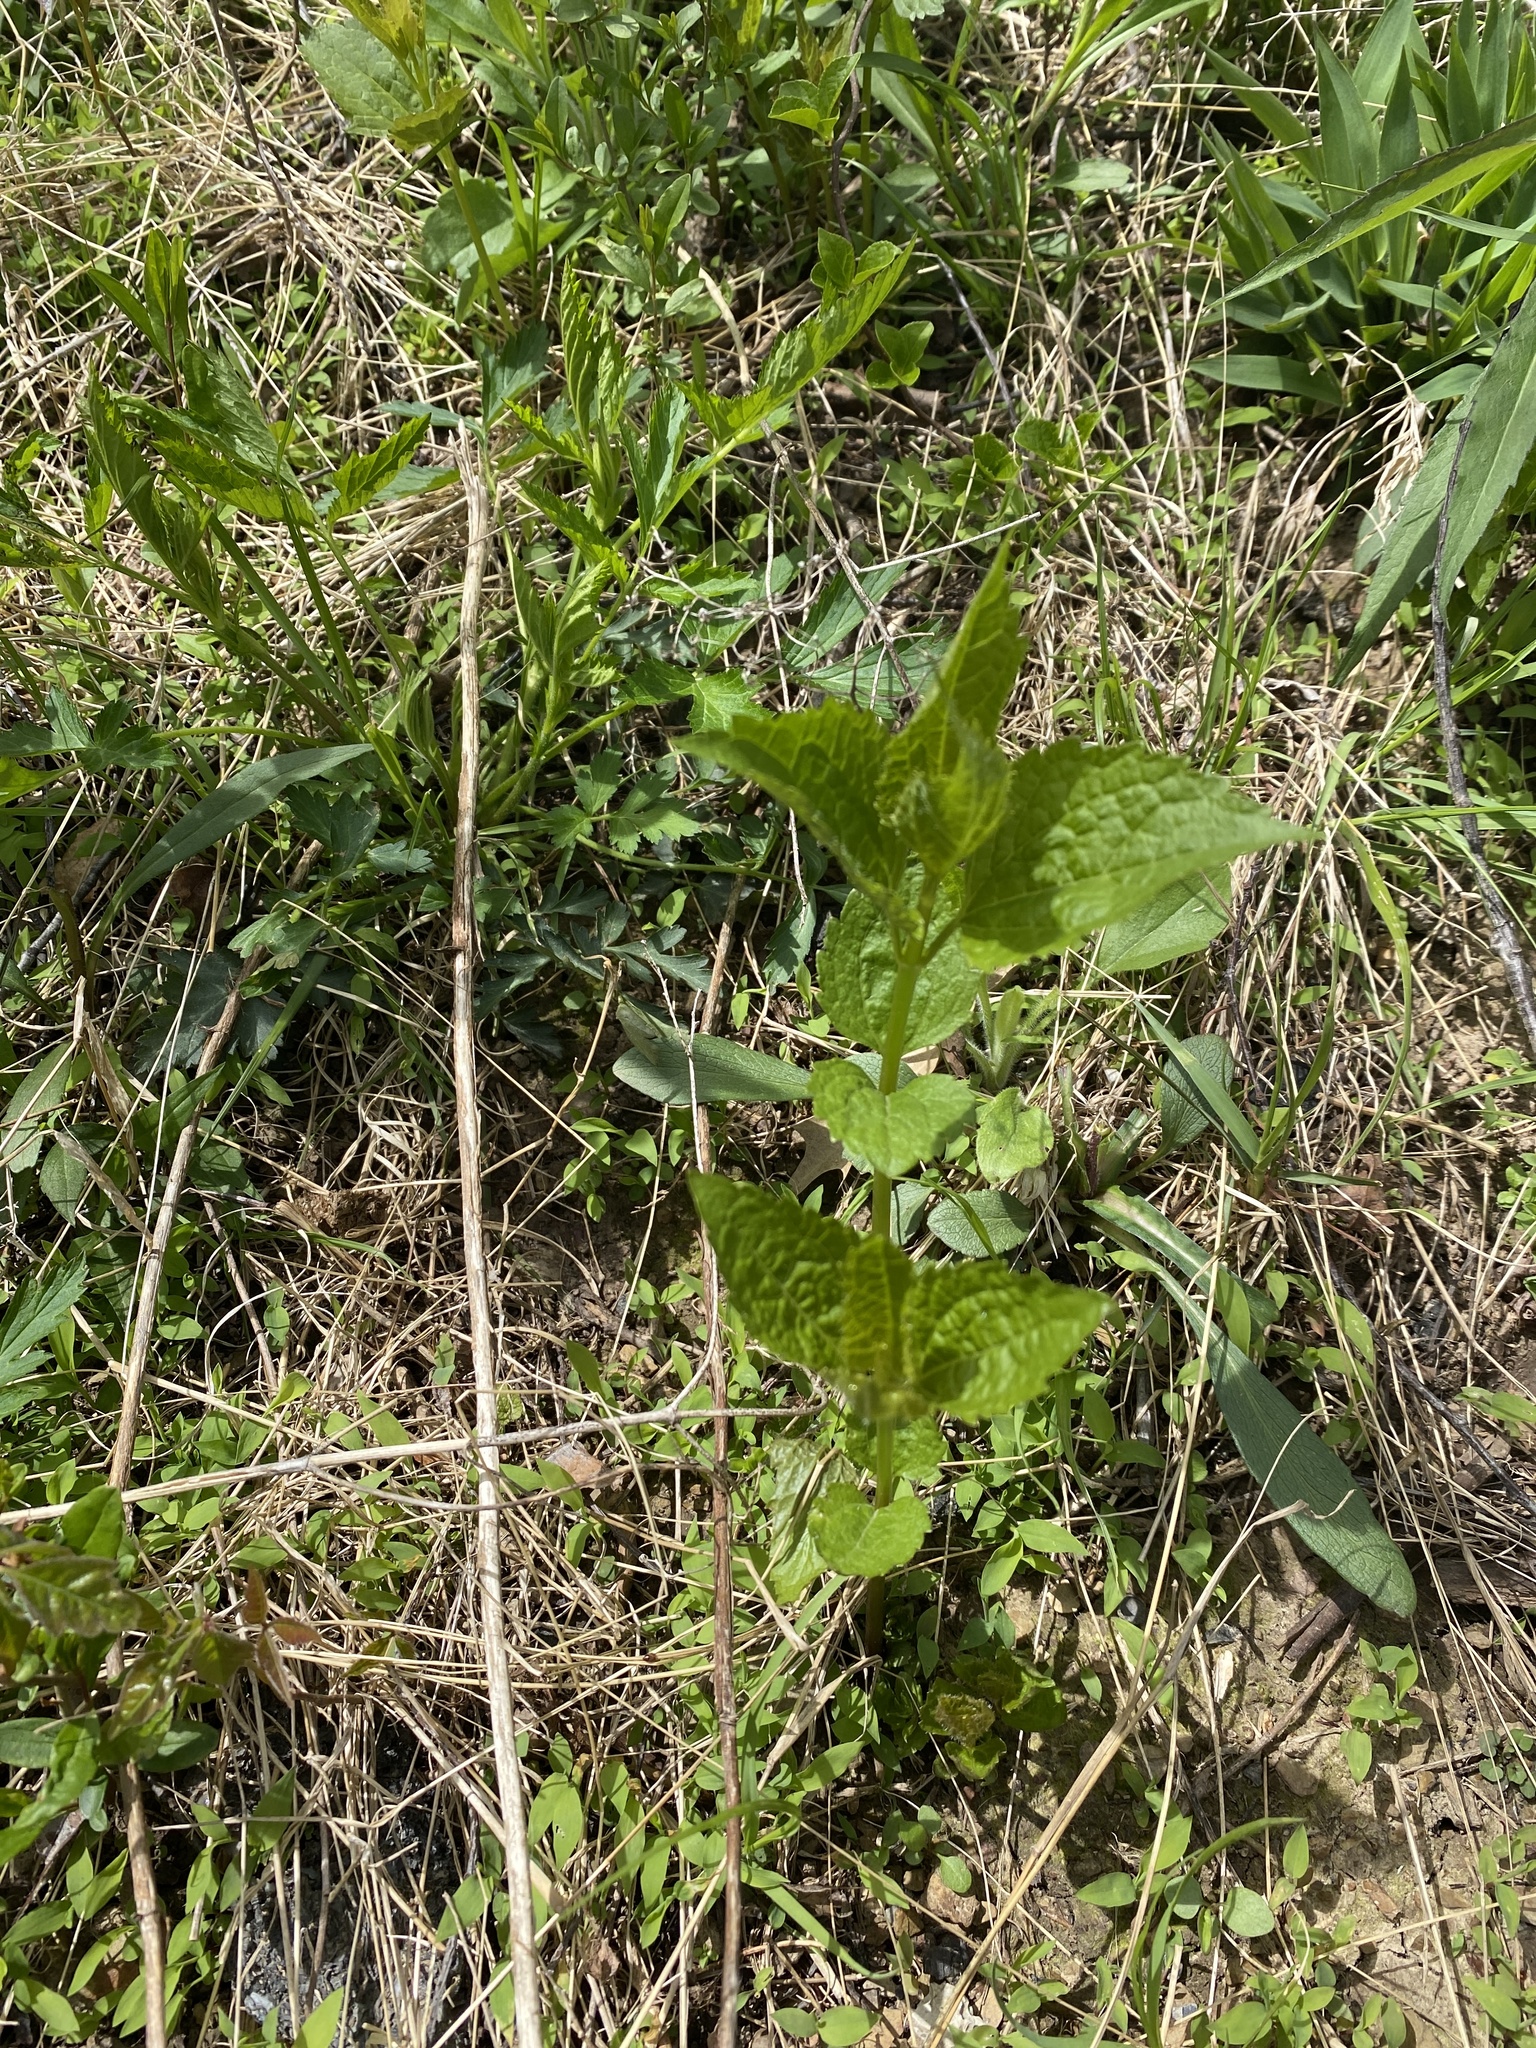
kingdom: Plantae
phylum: Tracheophyta
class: Magnoliopsida
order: Asterales
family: Asteraceae
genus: Ageratina
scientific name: Ageratina altissima
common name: White snakeroot
